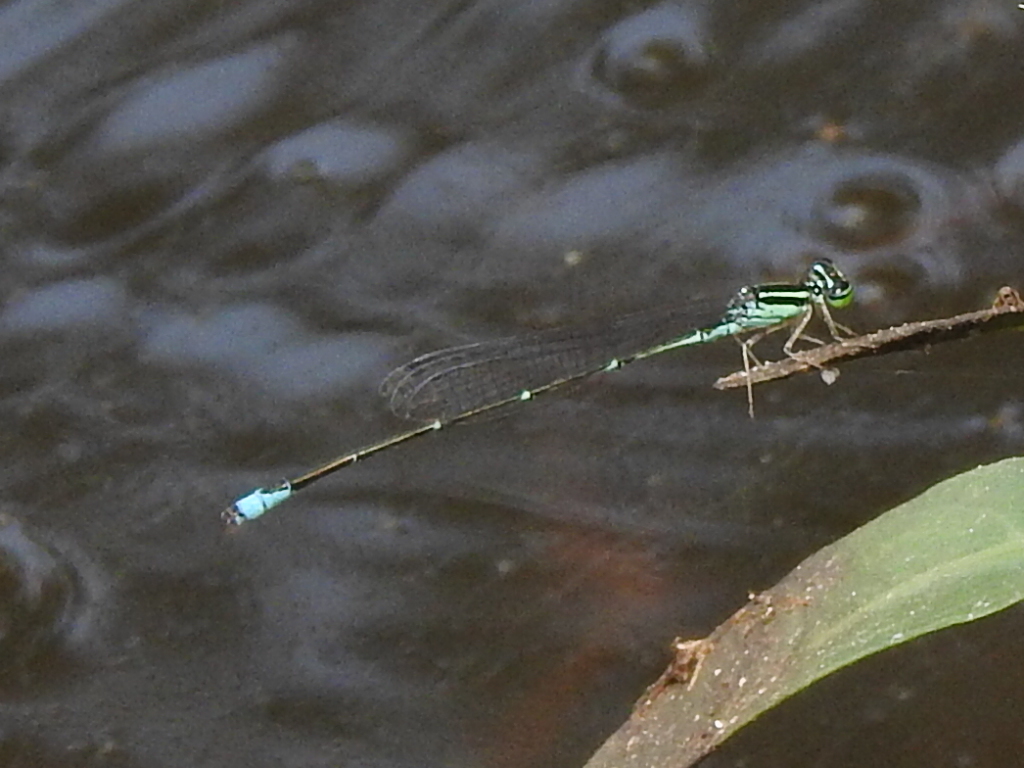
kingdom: Animalia
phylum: Arthropoda
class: Insecta
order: Odonata
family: Coenagrionidae
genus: Enallagma
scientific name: Enallagma exsulans
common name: Stream bluet
